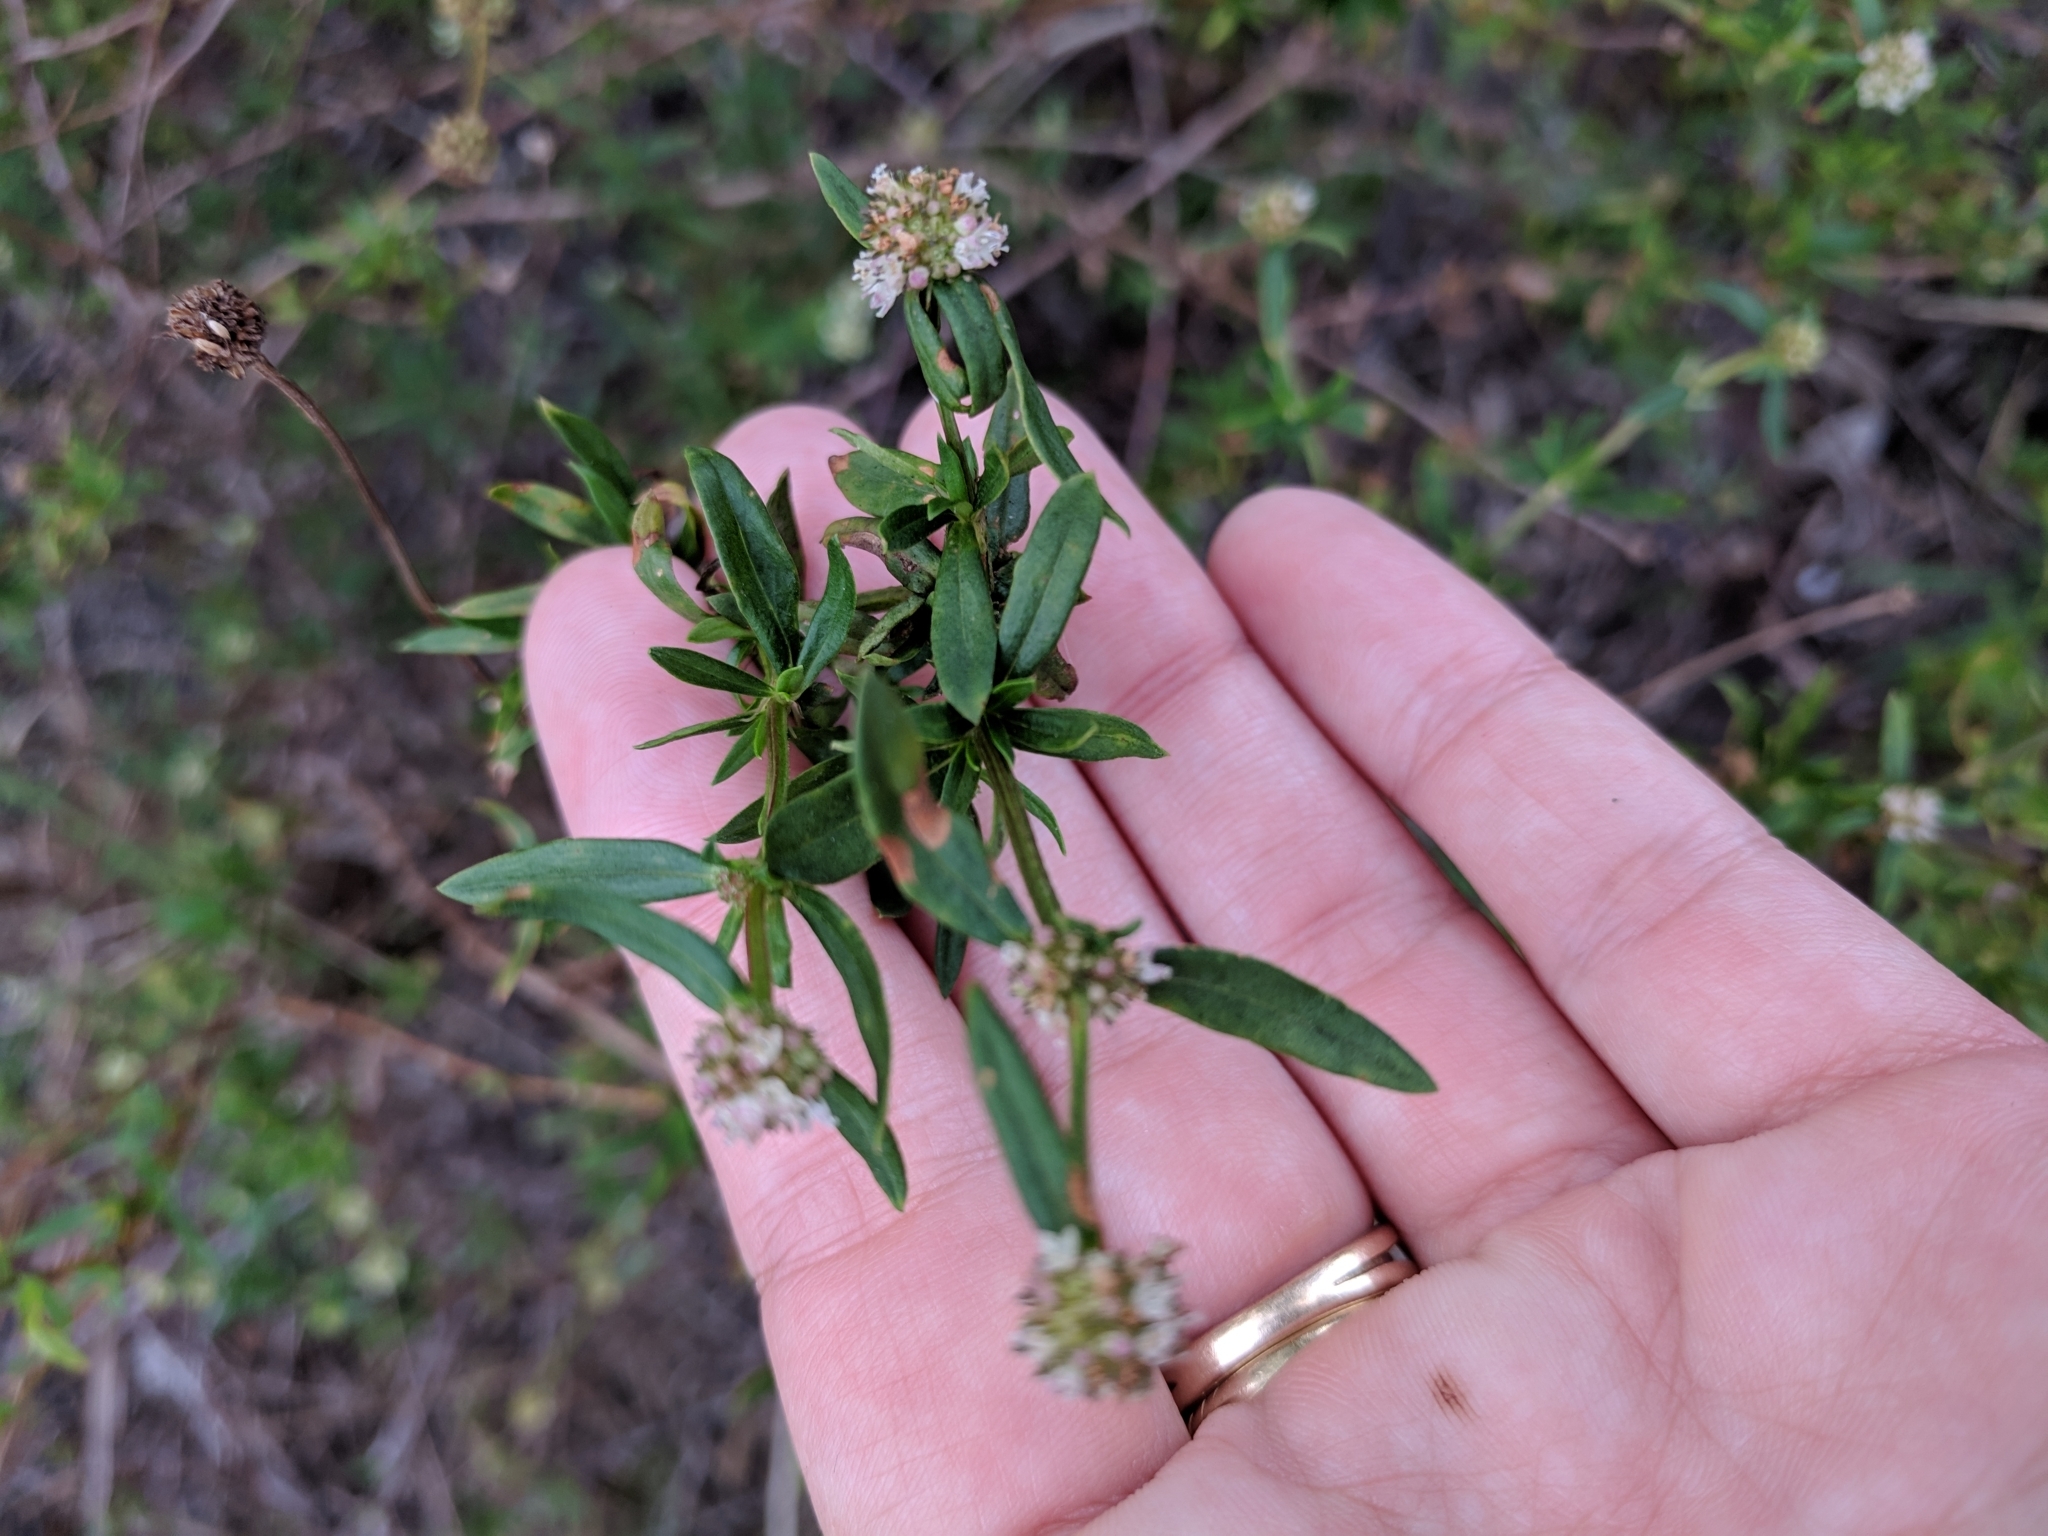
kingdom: Plantae
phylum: Tracheophyta
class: Magnoliopsida
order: Gentianales
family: Rubiaceae
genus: Spermacoce
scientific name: Spermacoce verticillata
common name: Shrubby false buttonweed
